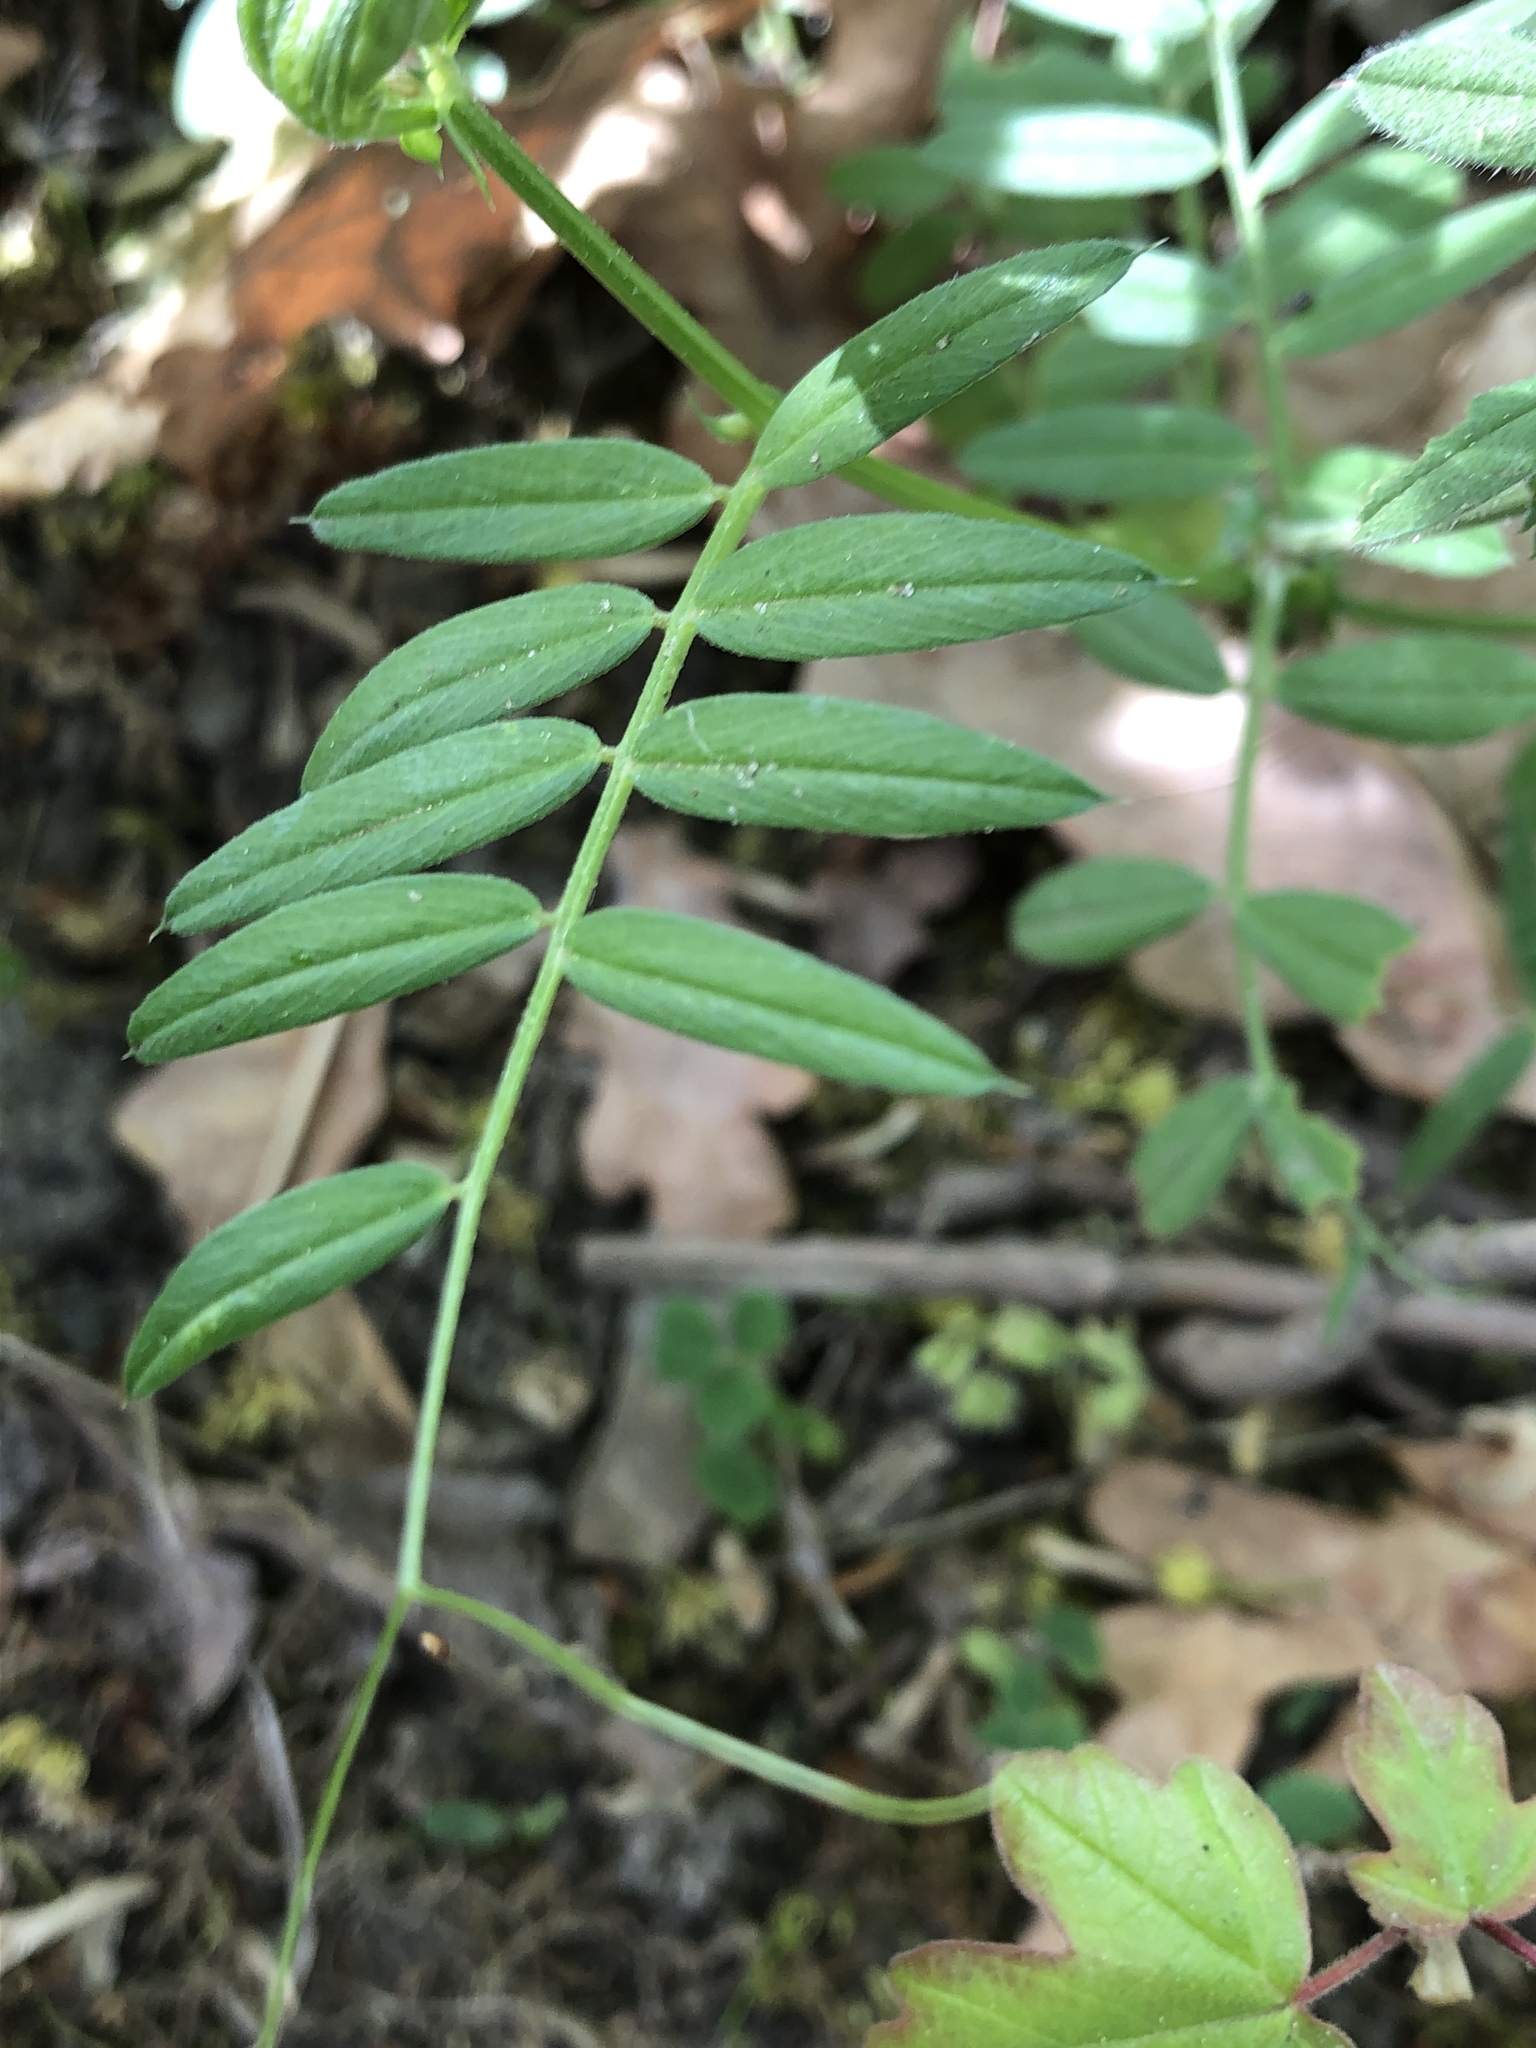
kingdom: Plantae
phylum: Tracheophyta
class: Magnoliopsida
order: Fabales
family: Fabaceae
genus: Vicia
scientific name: Vicia sativa
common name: Garden vetch
